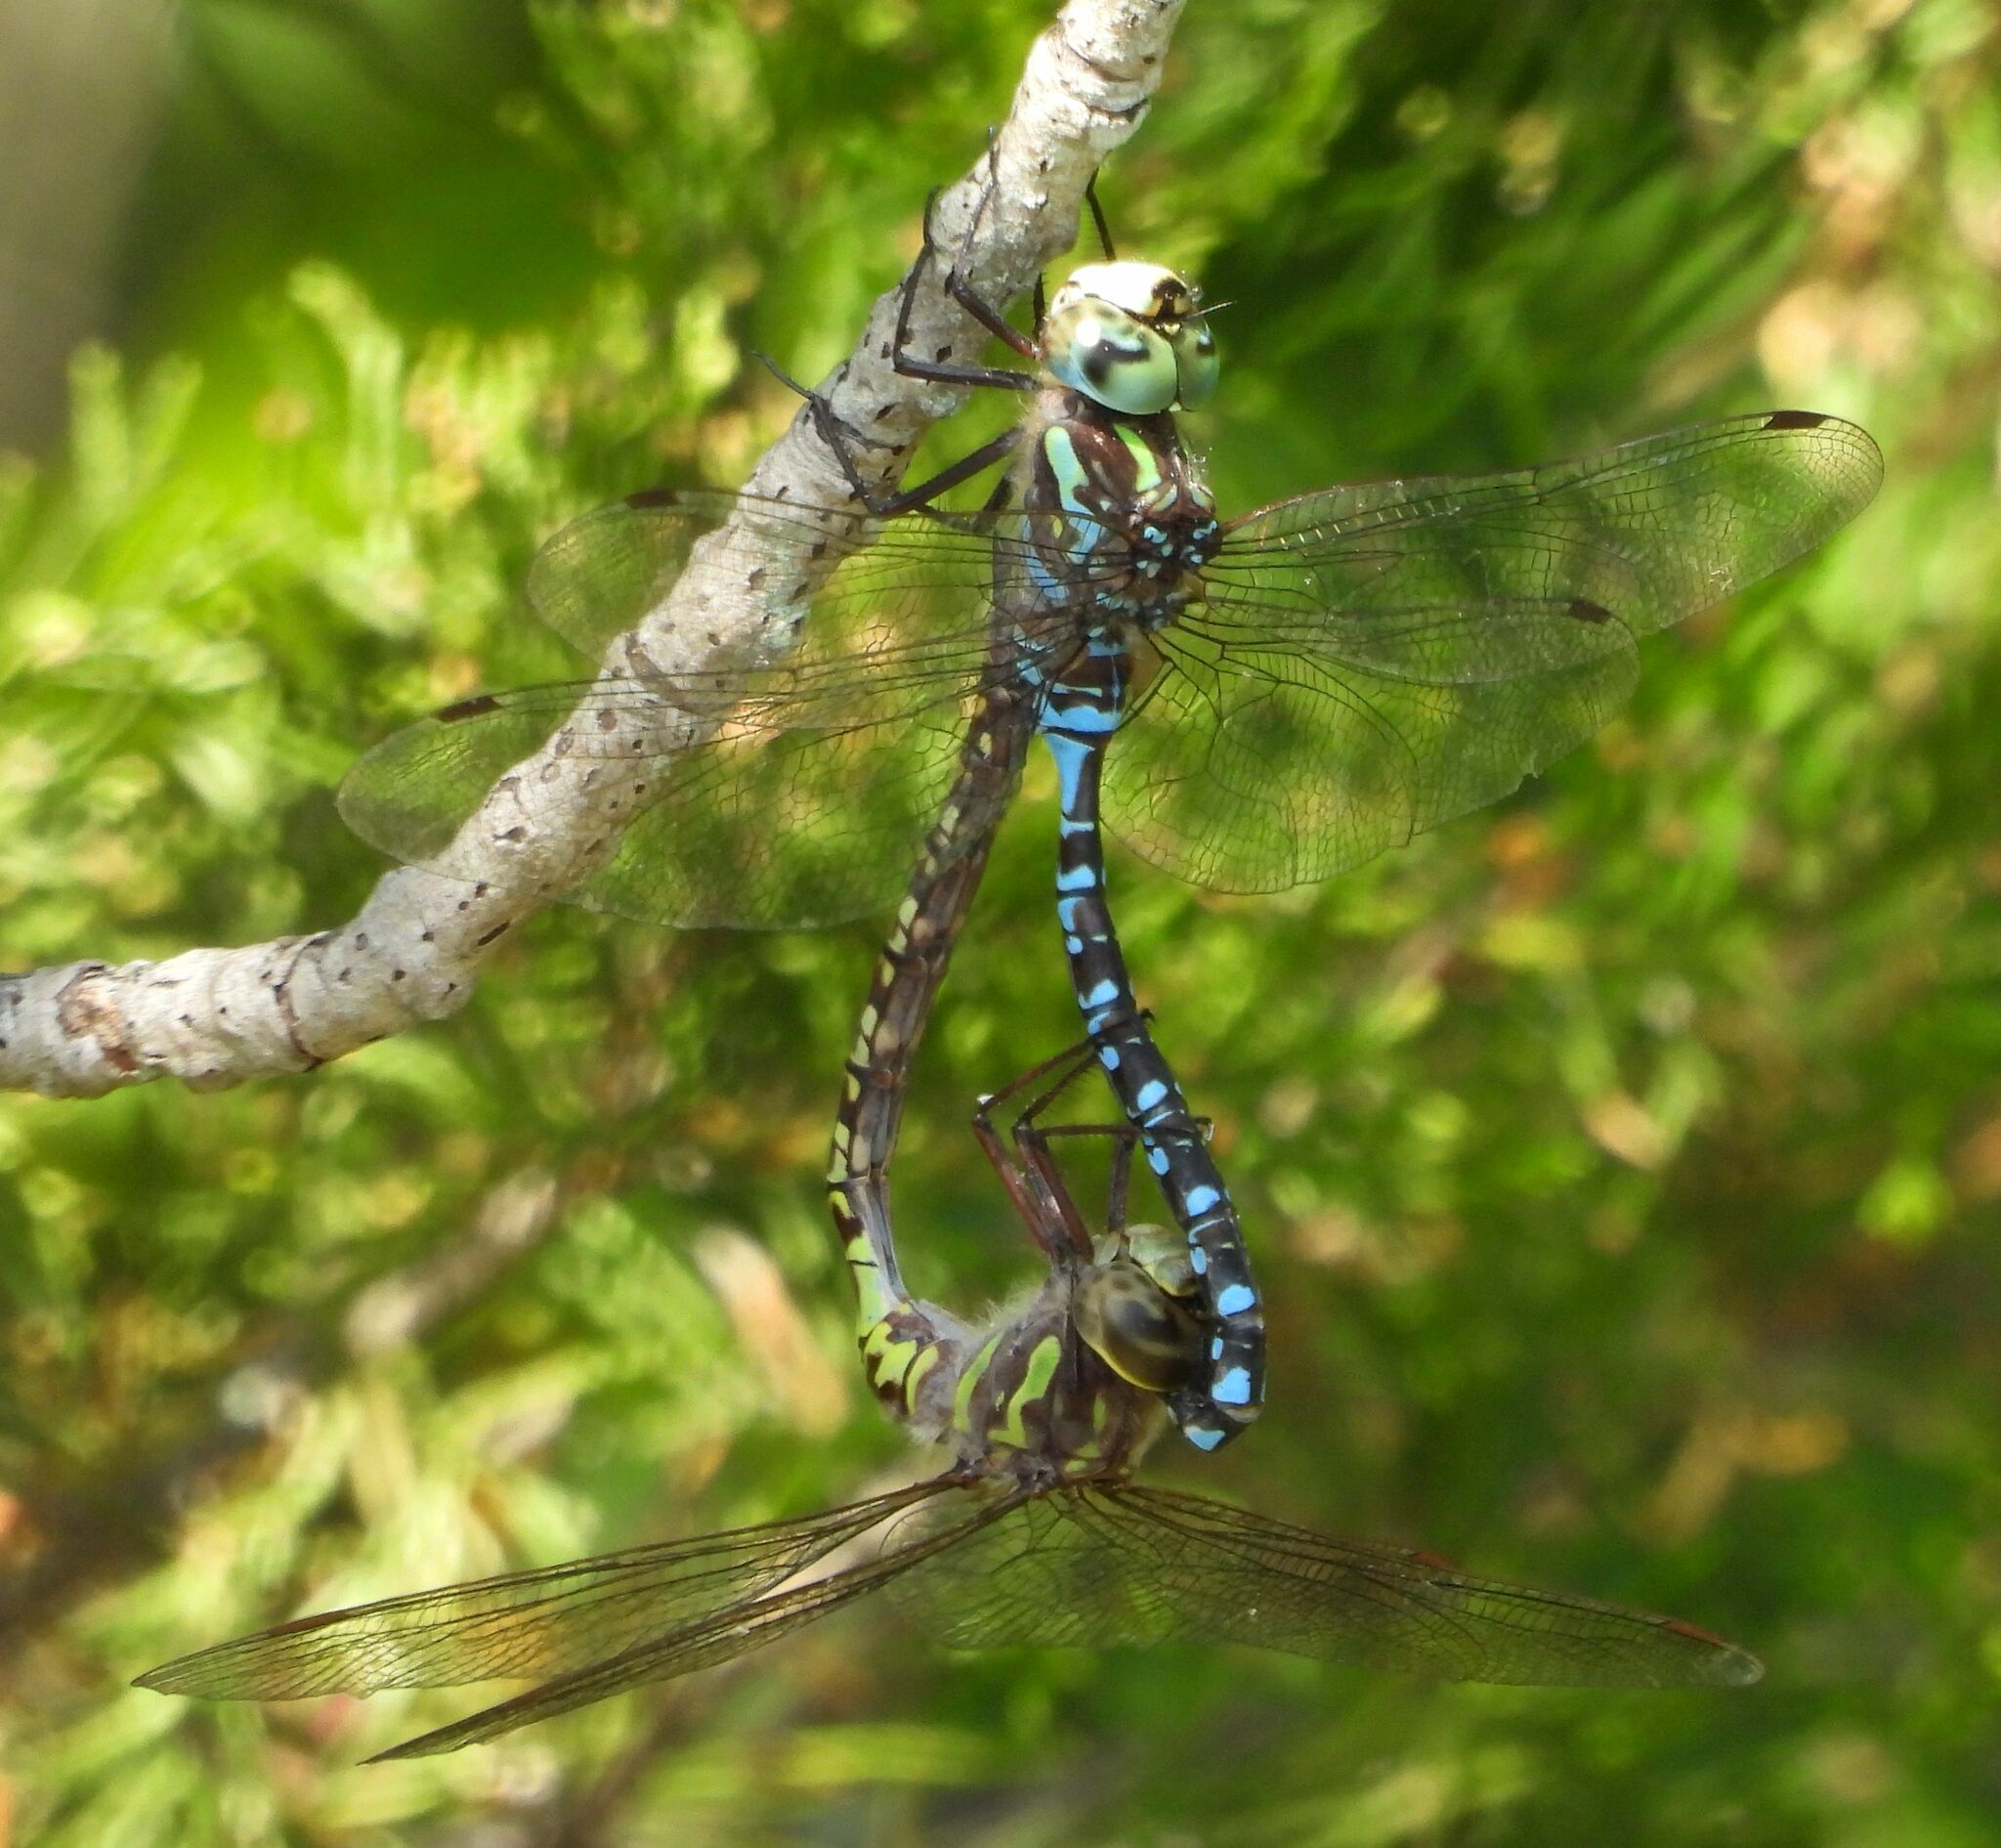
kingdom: Animalia
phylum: Arthropoda
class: Insecta
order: Odonata
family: Aeshnidae
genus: Aeshna
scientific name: Aeshna canadensis
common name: Canada darner
